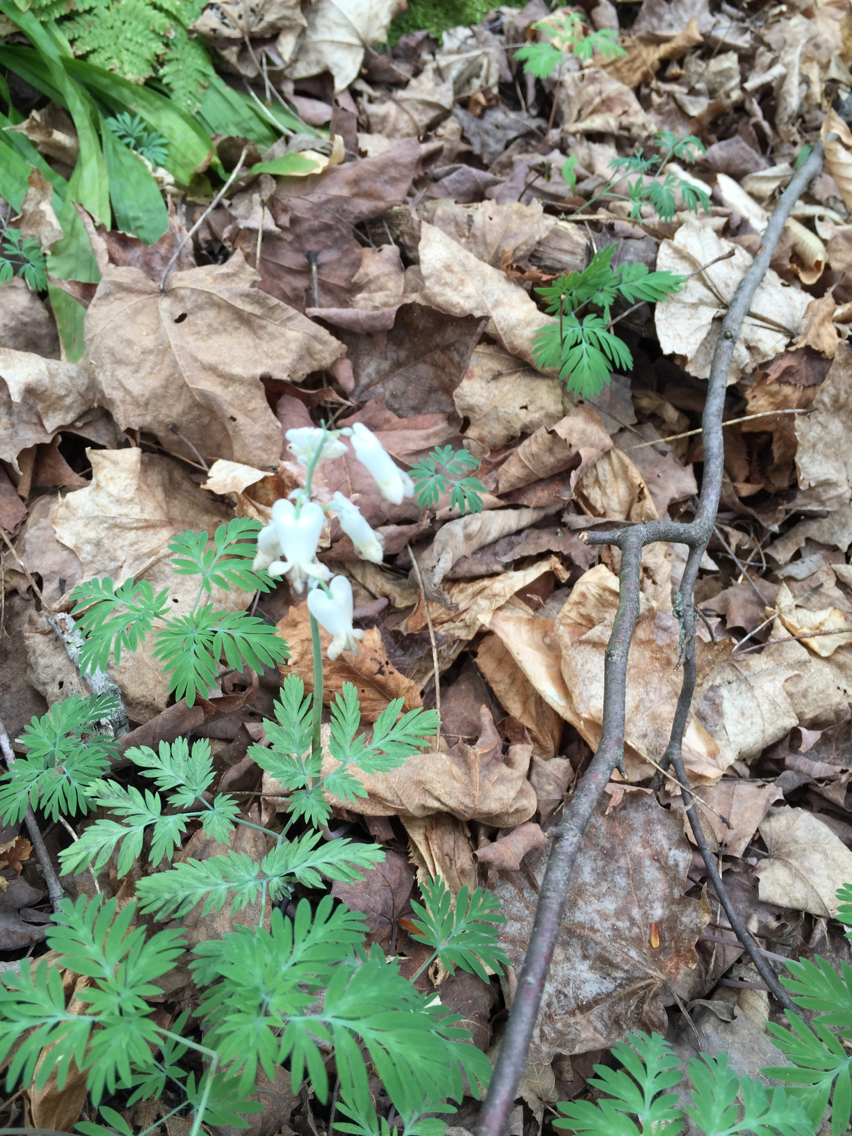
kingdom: Plantae
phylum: Tracheophyta
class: Magnoliopsida
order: Ranunculales
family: Papaveraceae
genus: Dicentra
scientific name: Dicentra canadensis
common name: Squirrel-corn
